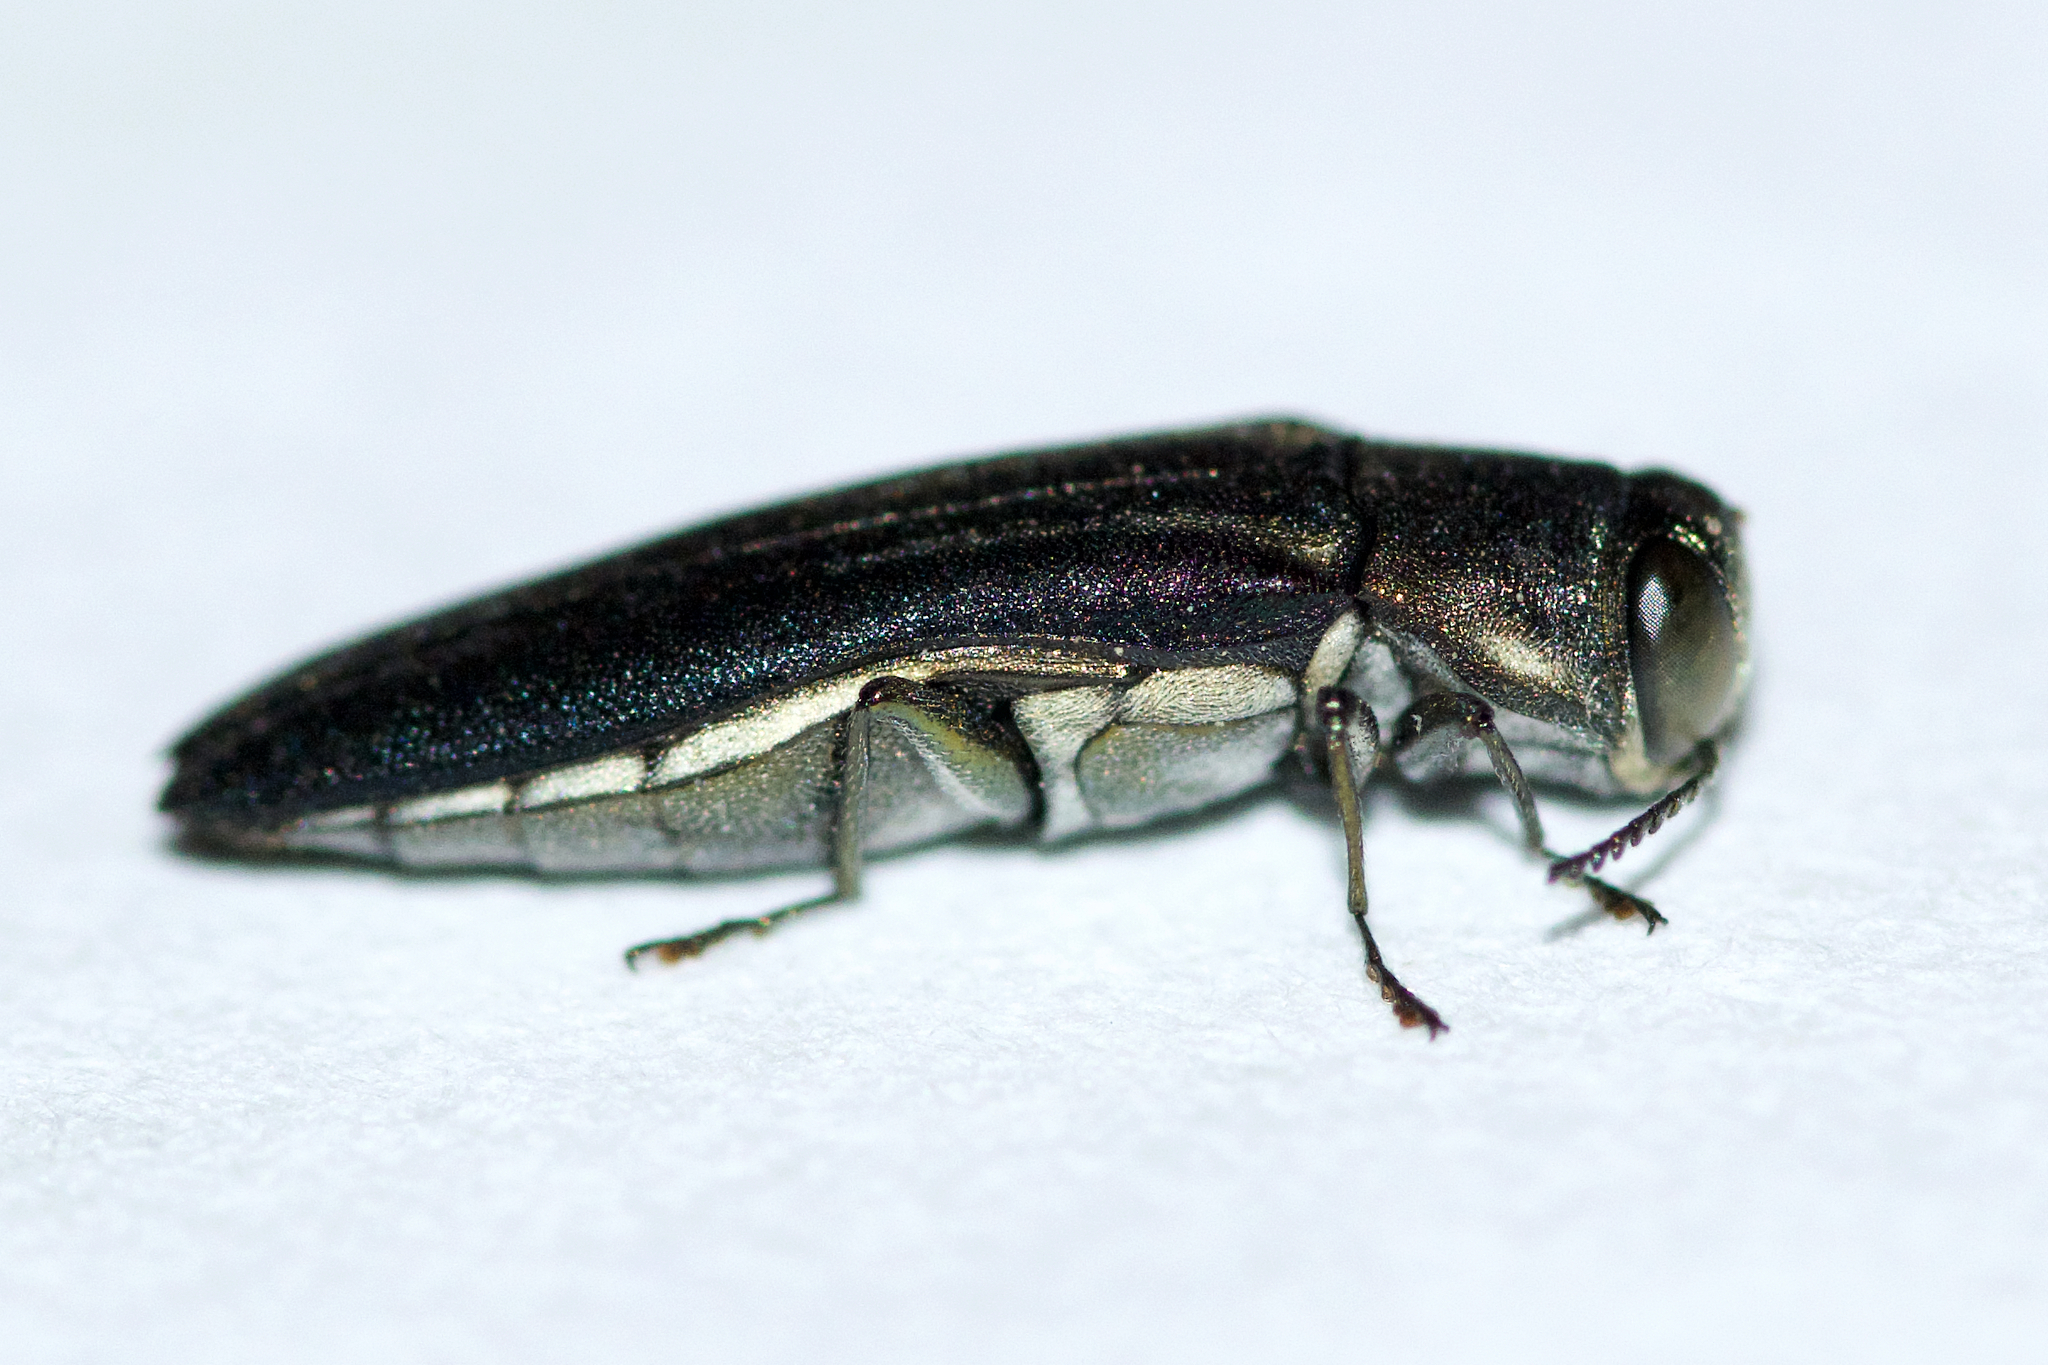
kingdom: Animalia
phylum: Arthropoda
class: Insecta
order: Coleoptera
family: Buprestidae
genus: Agrilus
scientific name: Agrilus bilineatus
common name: Two-lined chestnut borer
